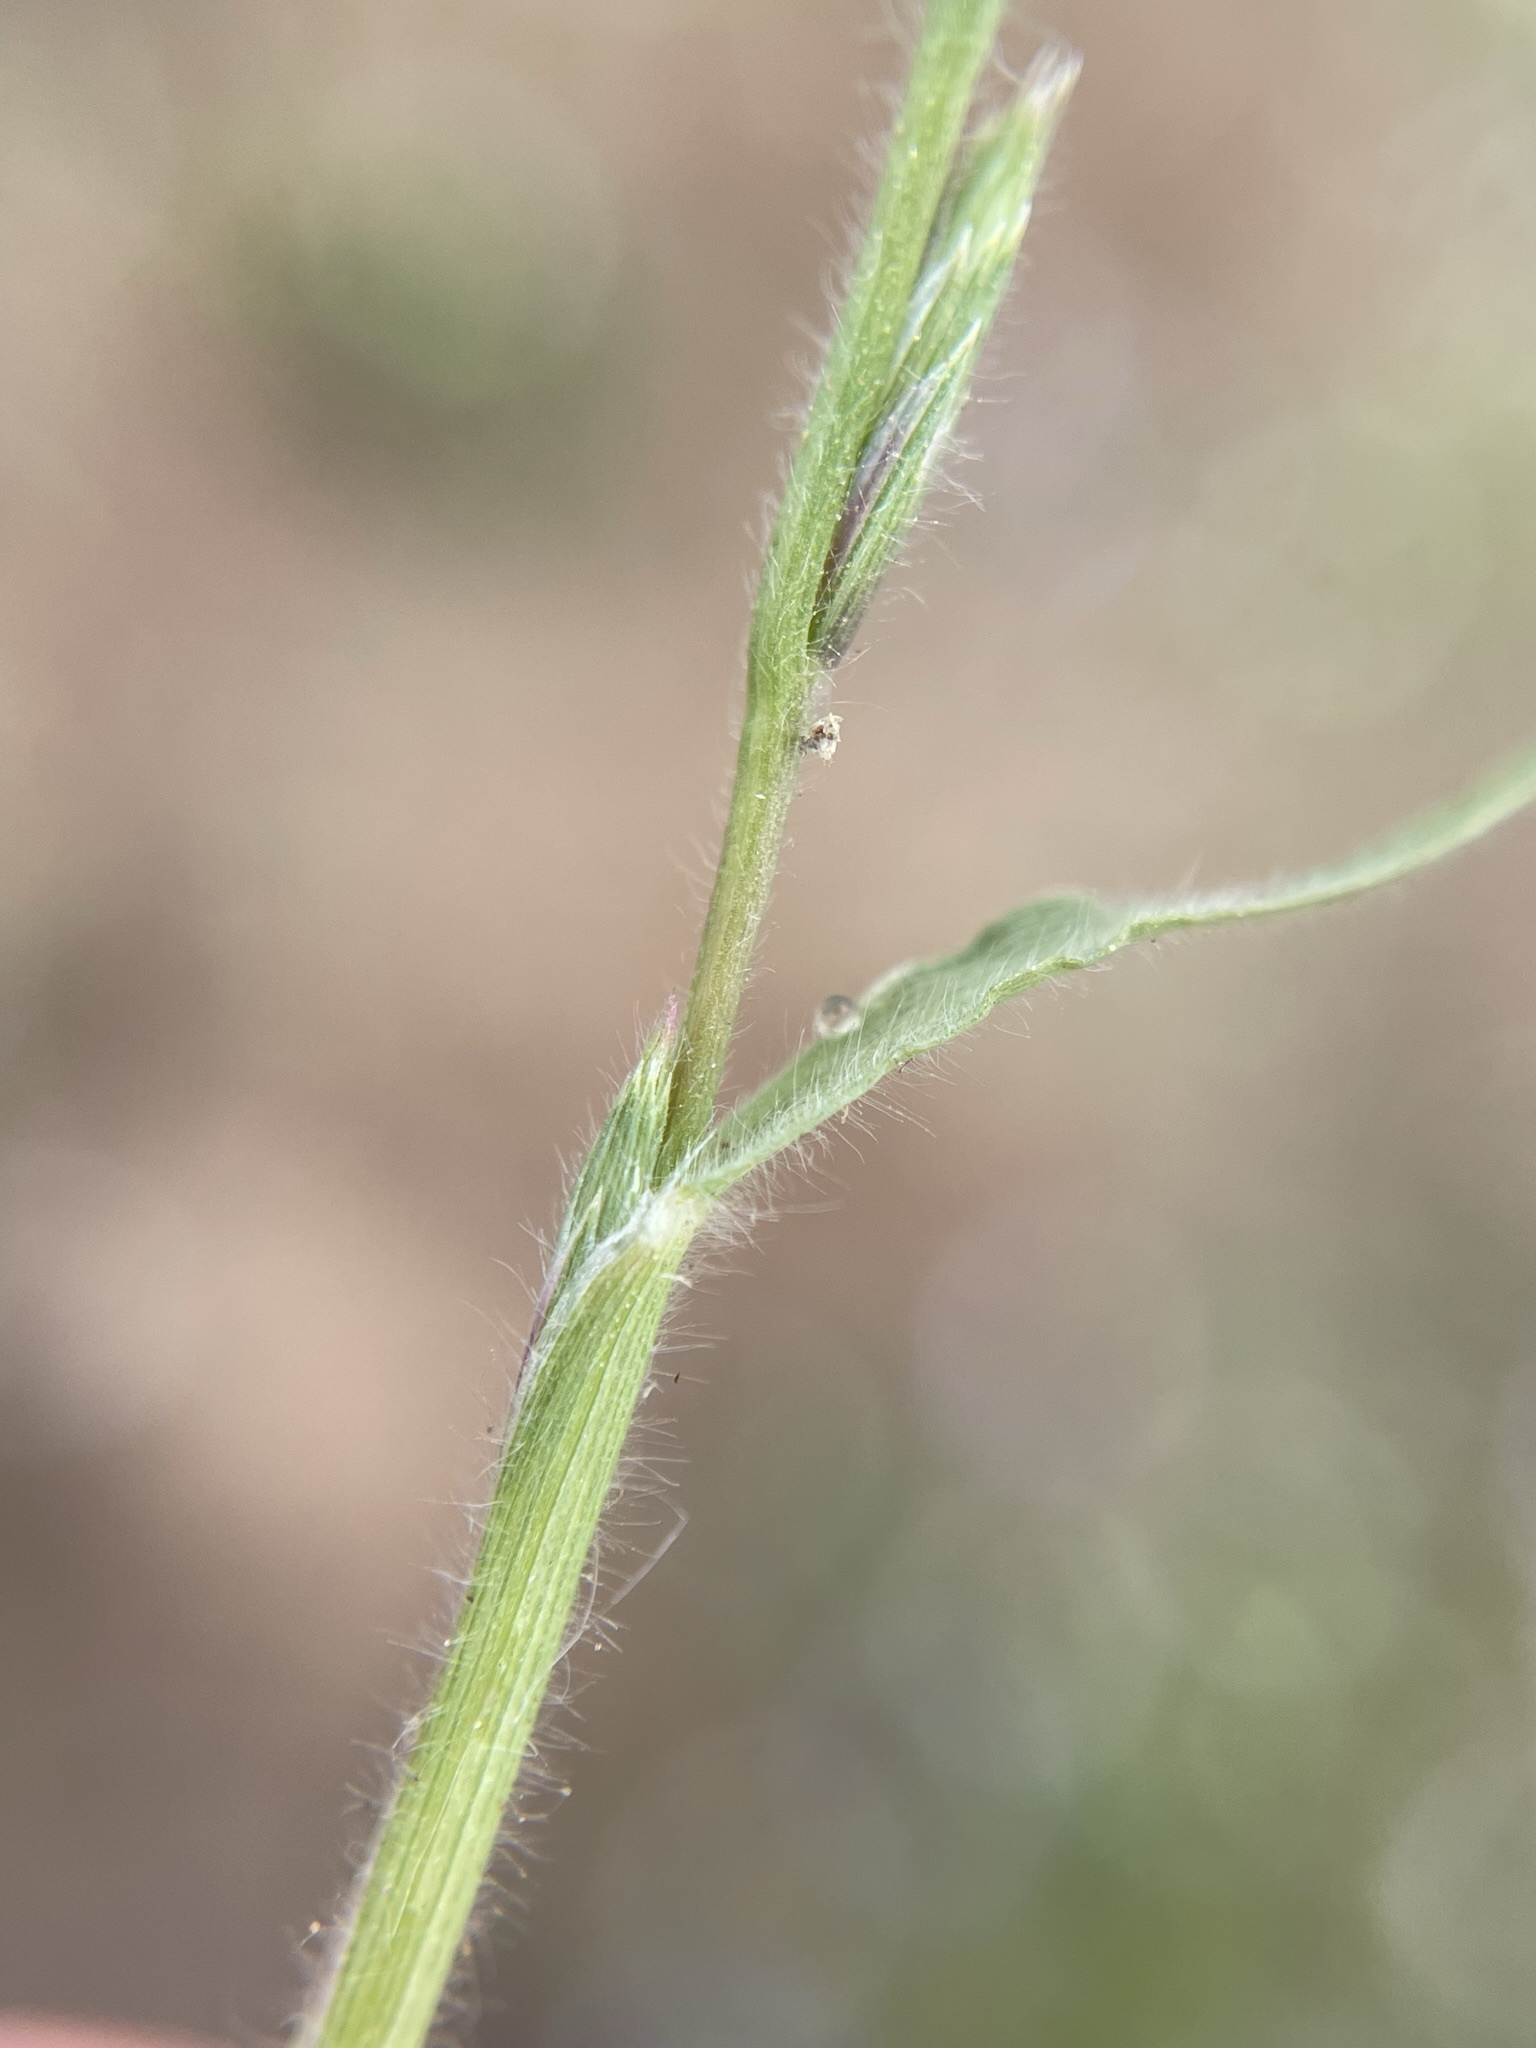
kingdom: Plantae
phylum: Tracheophyta
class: Liliopsida
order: Poales
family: Poaceae
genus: Orcuttia
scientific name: Orcuttia tenuis
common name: Slender orcutt grass
